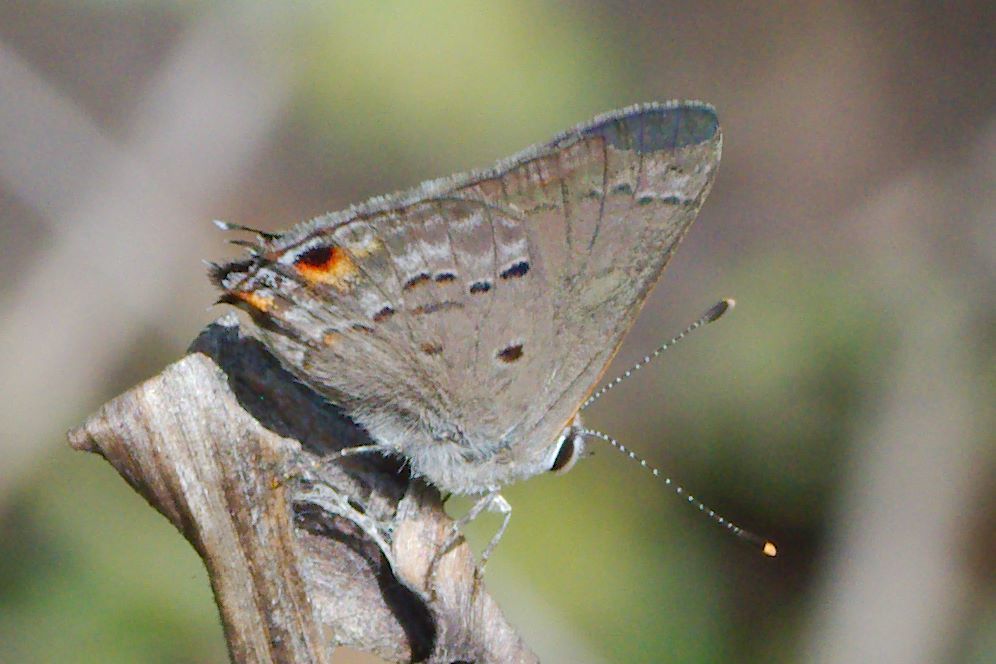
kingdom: Animalia
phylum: Arthropoda
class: Insecta
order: Lepidoptera
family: Lycaenidae
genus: Callicista
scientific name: Callicista columella
